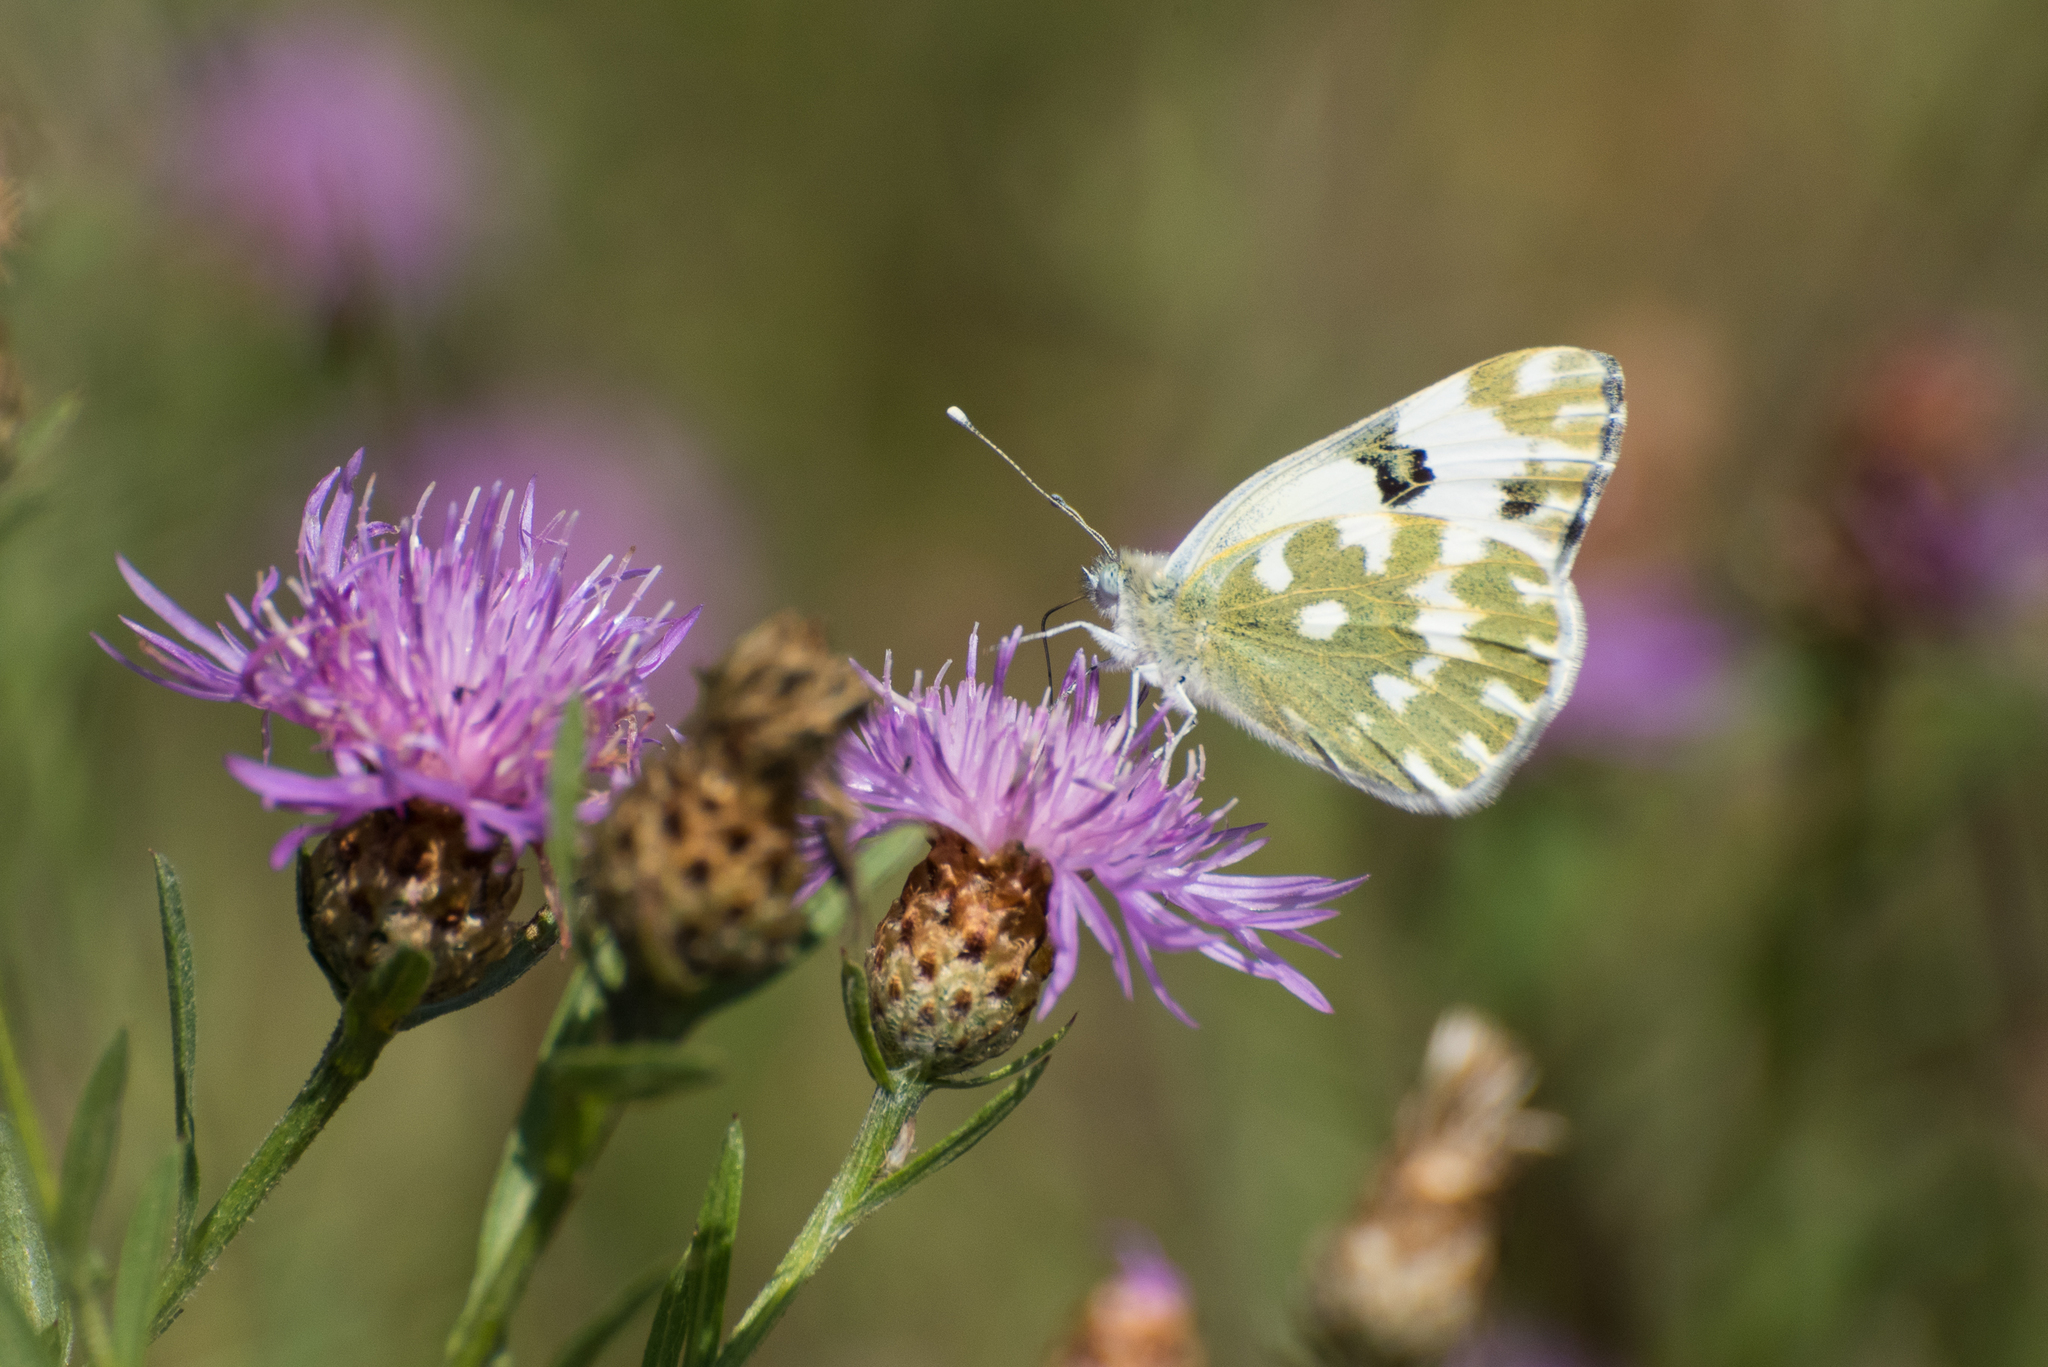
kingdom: Animalia
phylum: Arthropoda
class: Insecta
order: Lepidoptera
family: Pieridae
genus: Pontia
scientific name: Pontia edusa
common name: Eastern bath white
